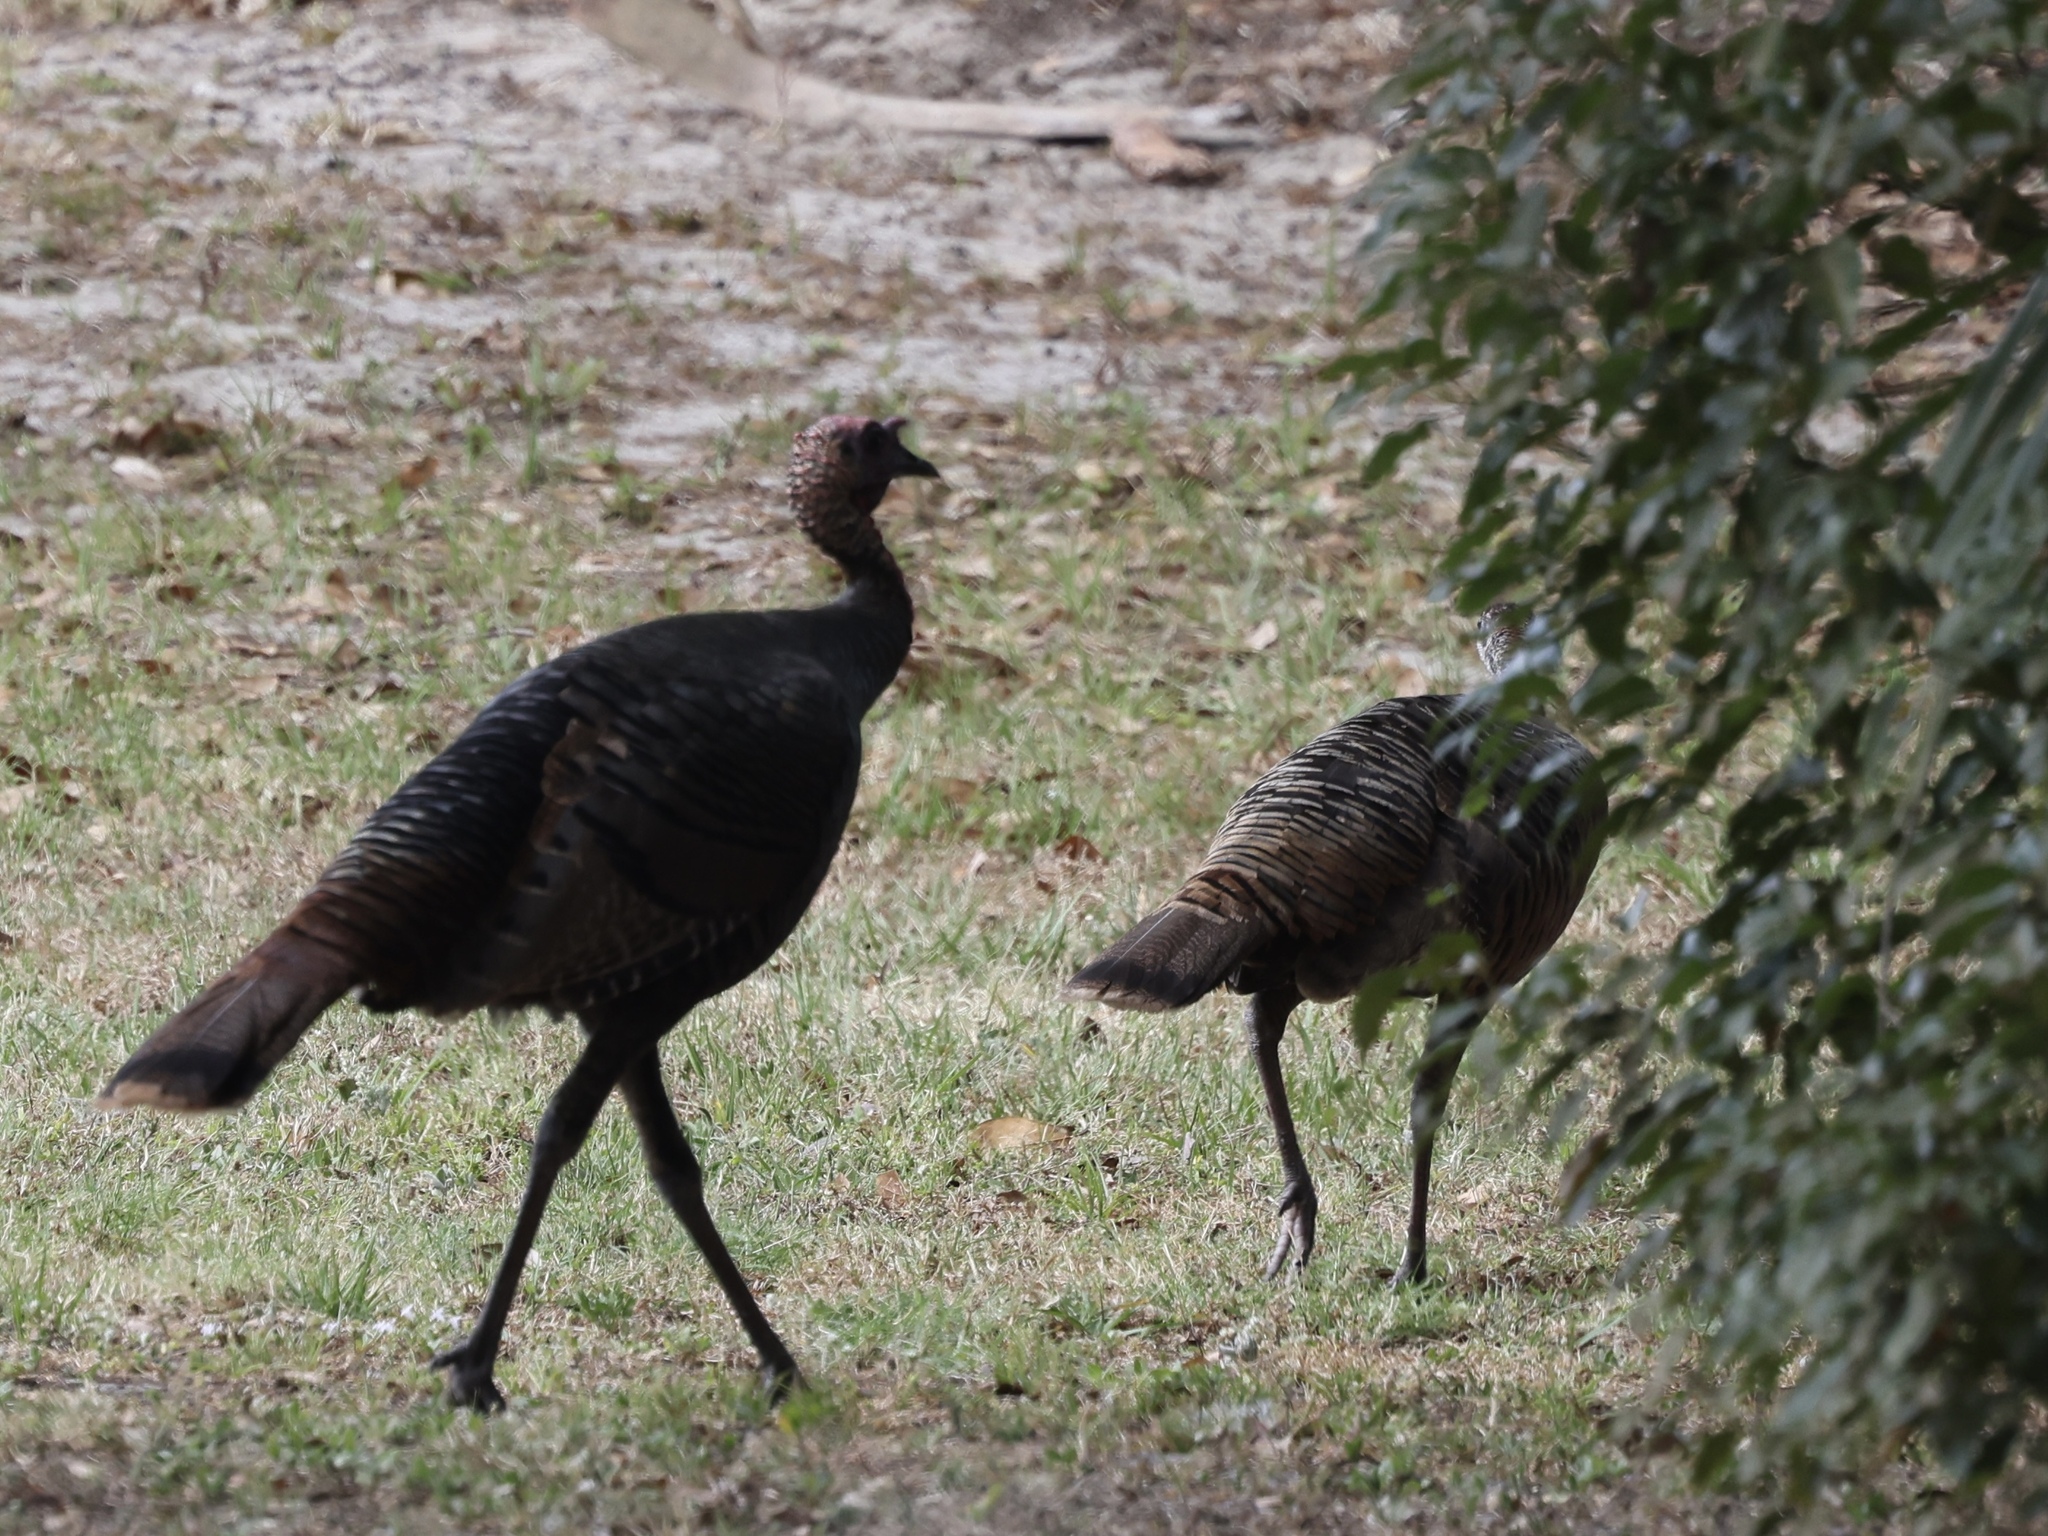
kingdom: Animalia
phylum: Chordata
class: Aves
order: Galliformes
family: Phasianidae
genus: Meleagris
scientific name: Meleagris gallopavo
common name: Wild turkey
